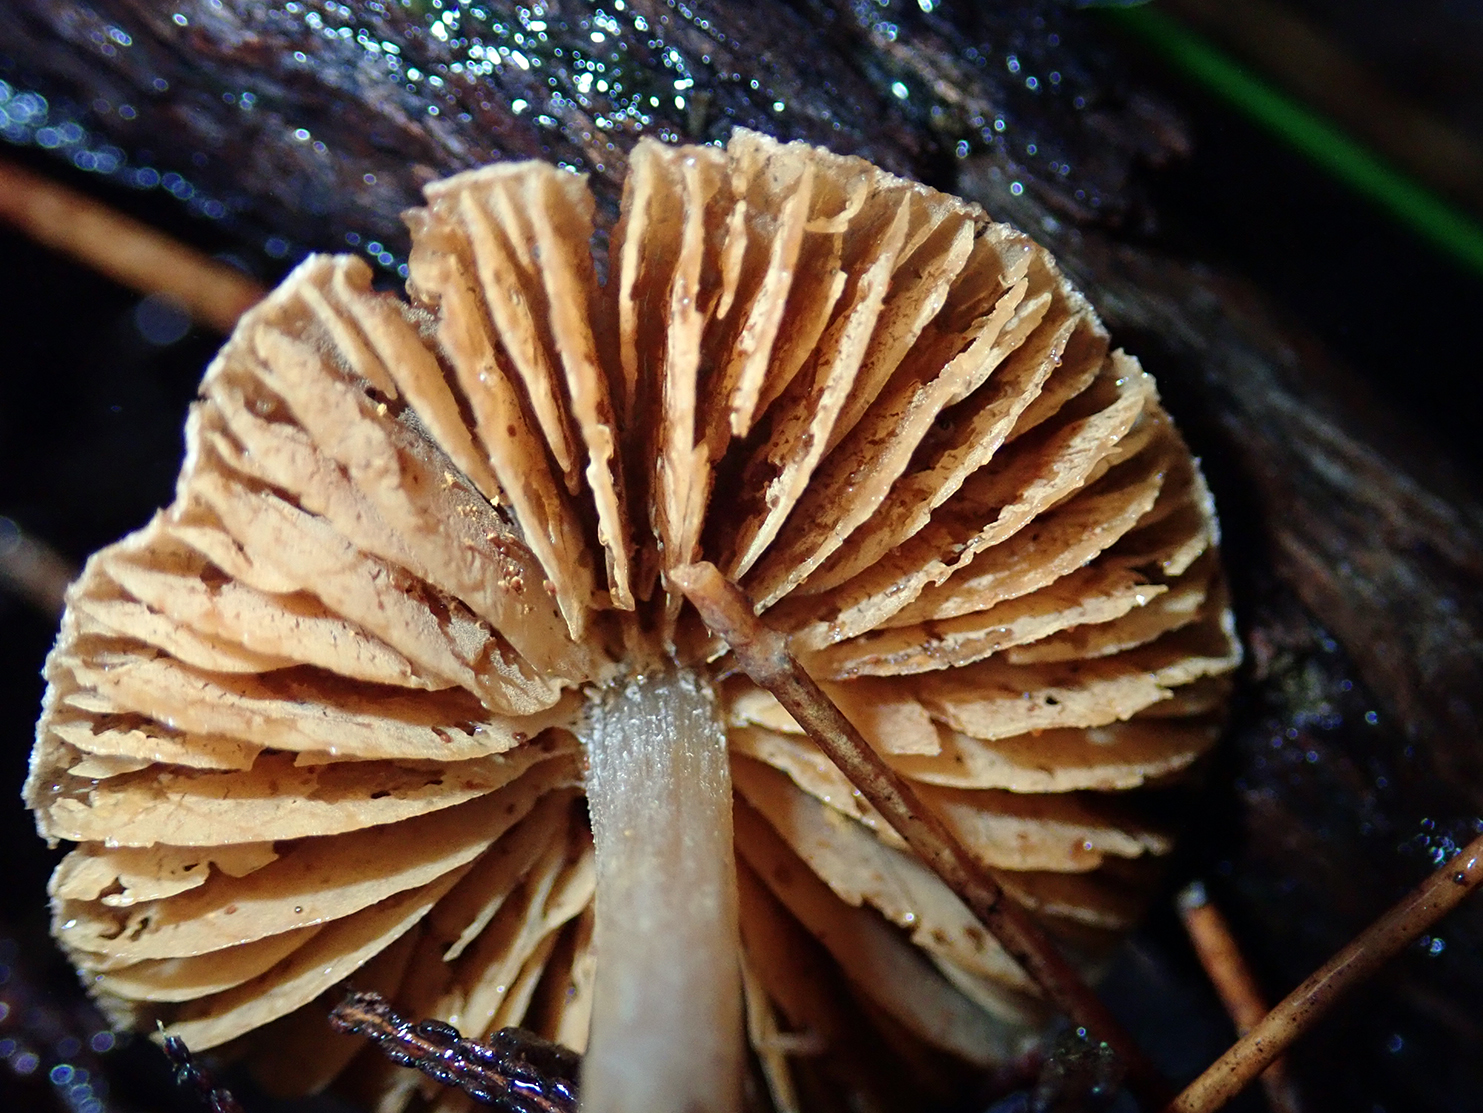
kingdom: Fungi
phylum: Basidiomycota
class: Agaricomycetes
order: Agaricales
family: Cortinariaceae
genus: Cortinarius
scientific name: Cortinarius waiporianus
